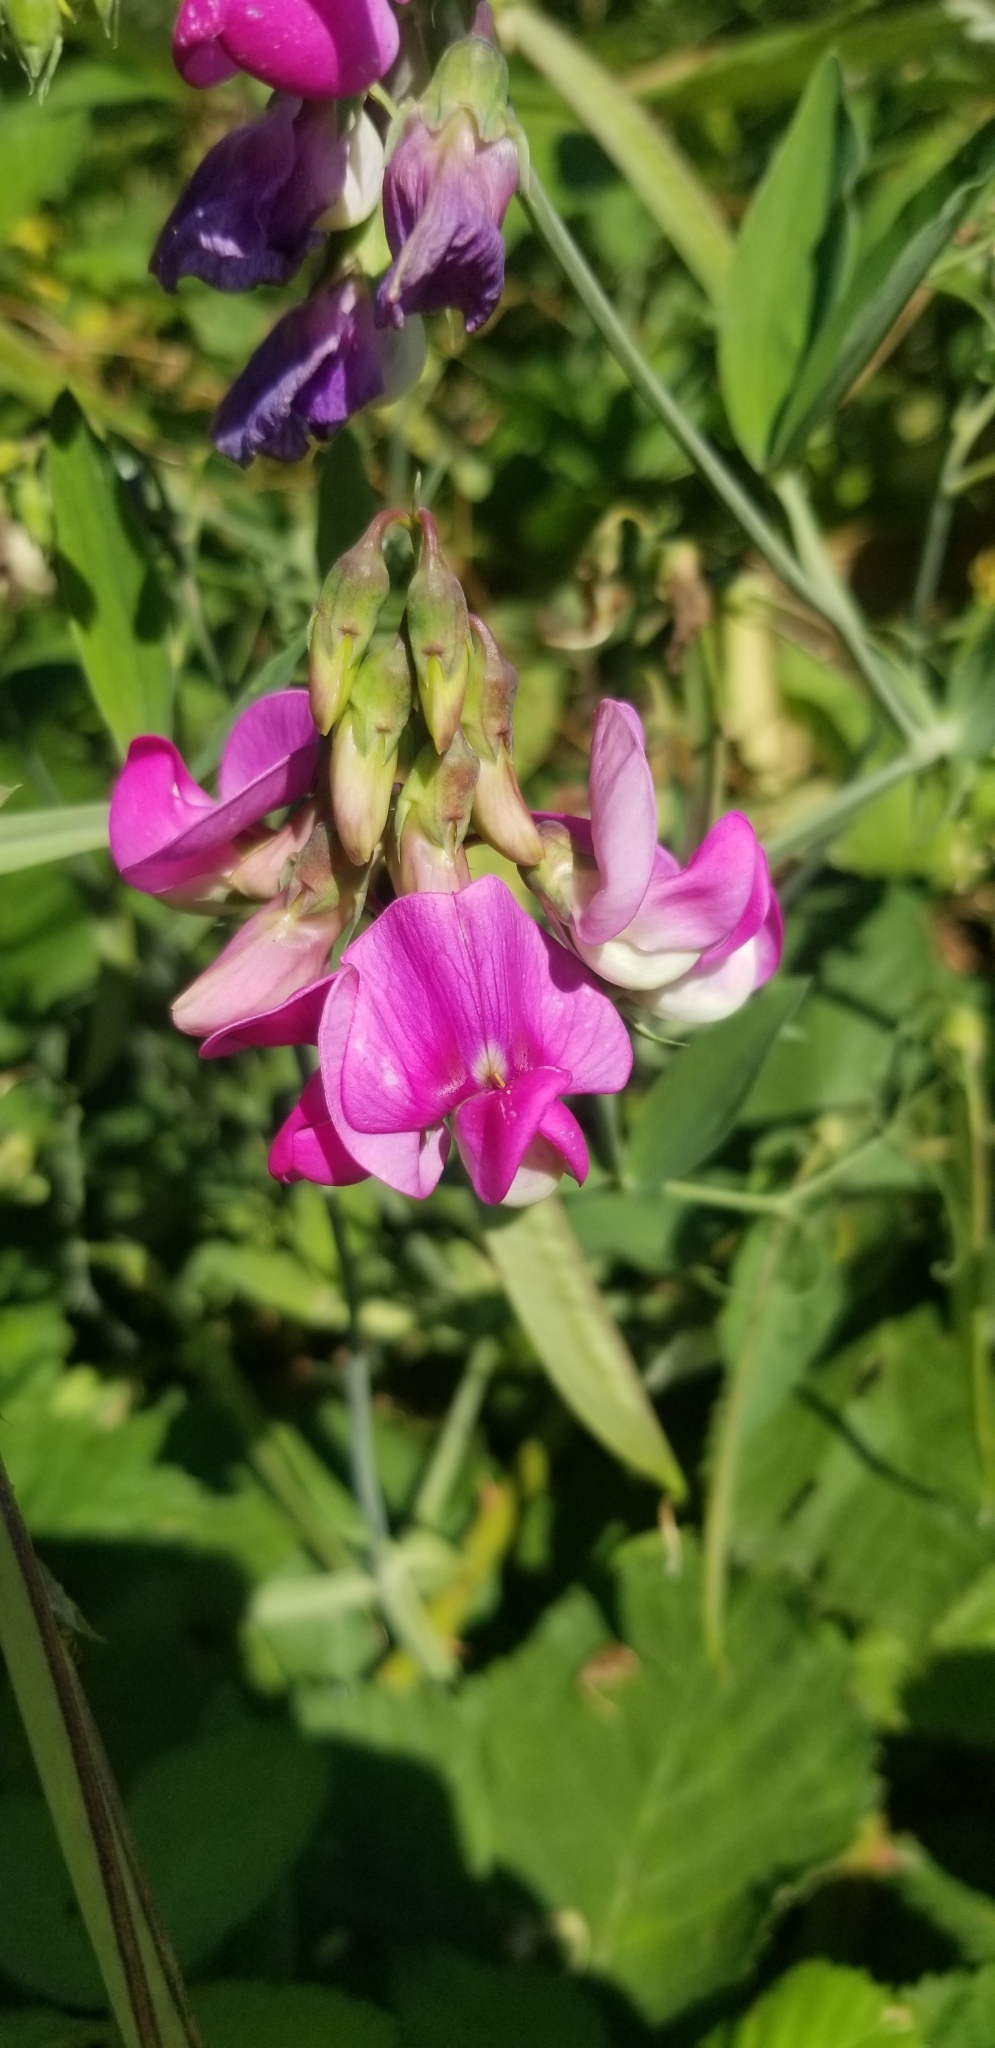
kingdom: Plantae
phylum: Tracheophyta
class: Magnoliopsida
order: Fabales
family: Fabaceae
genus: Lathyrus
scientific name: Lathyrus latifolius
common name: Perennial pea
